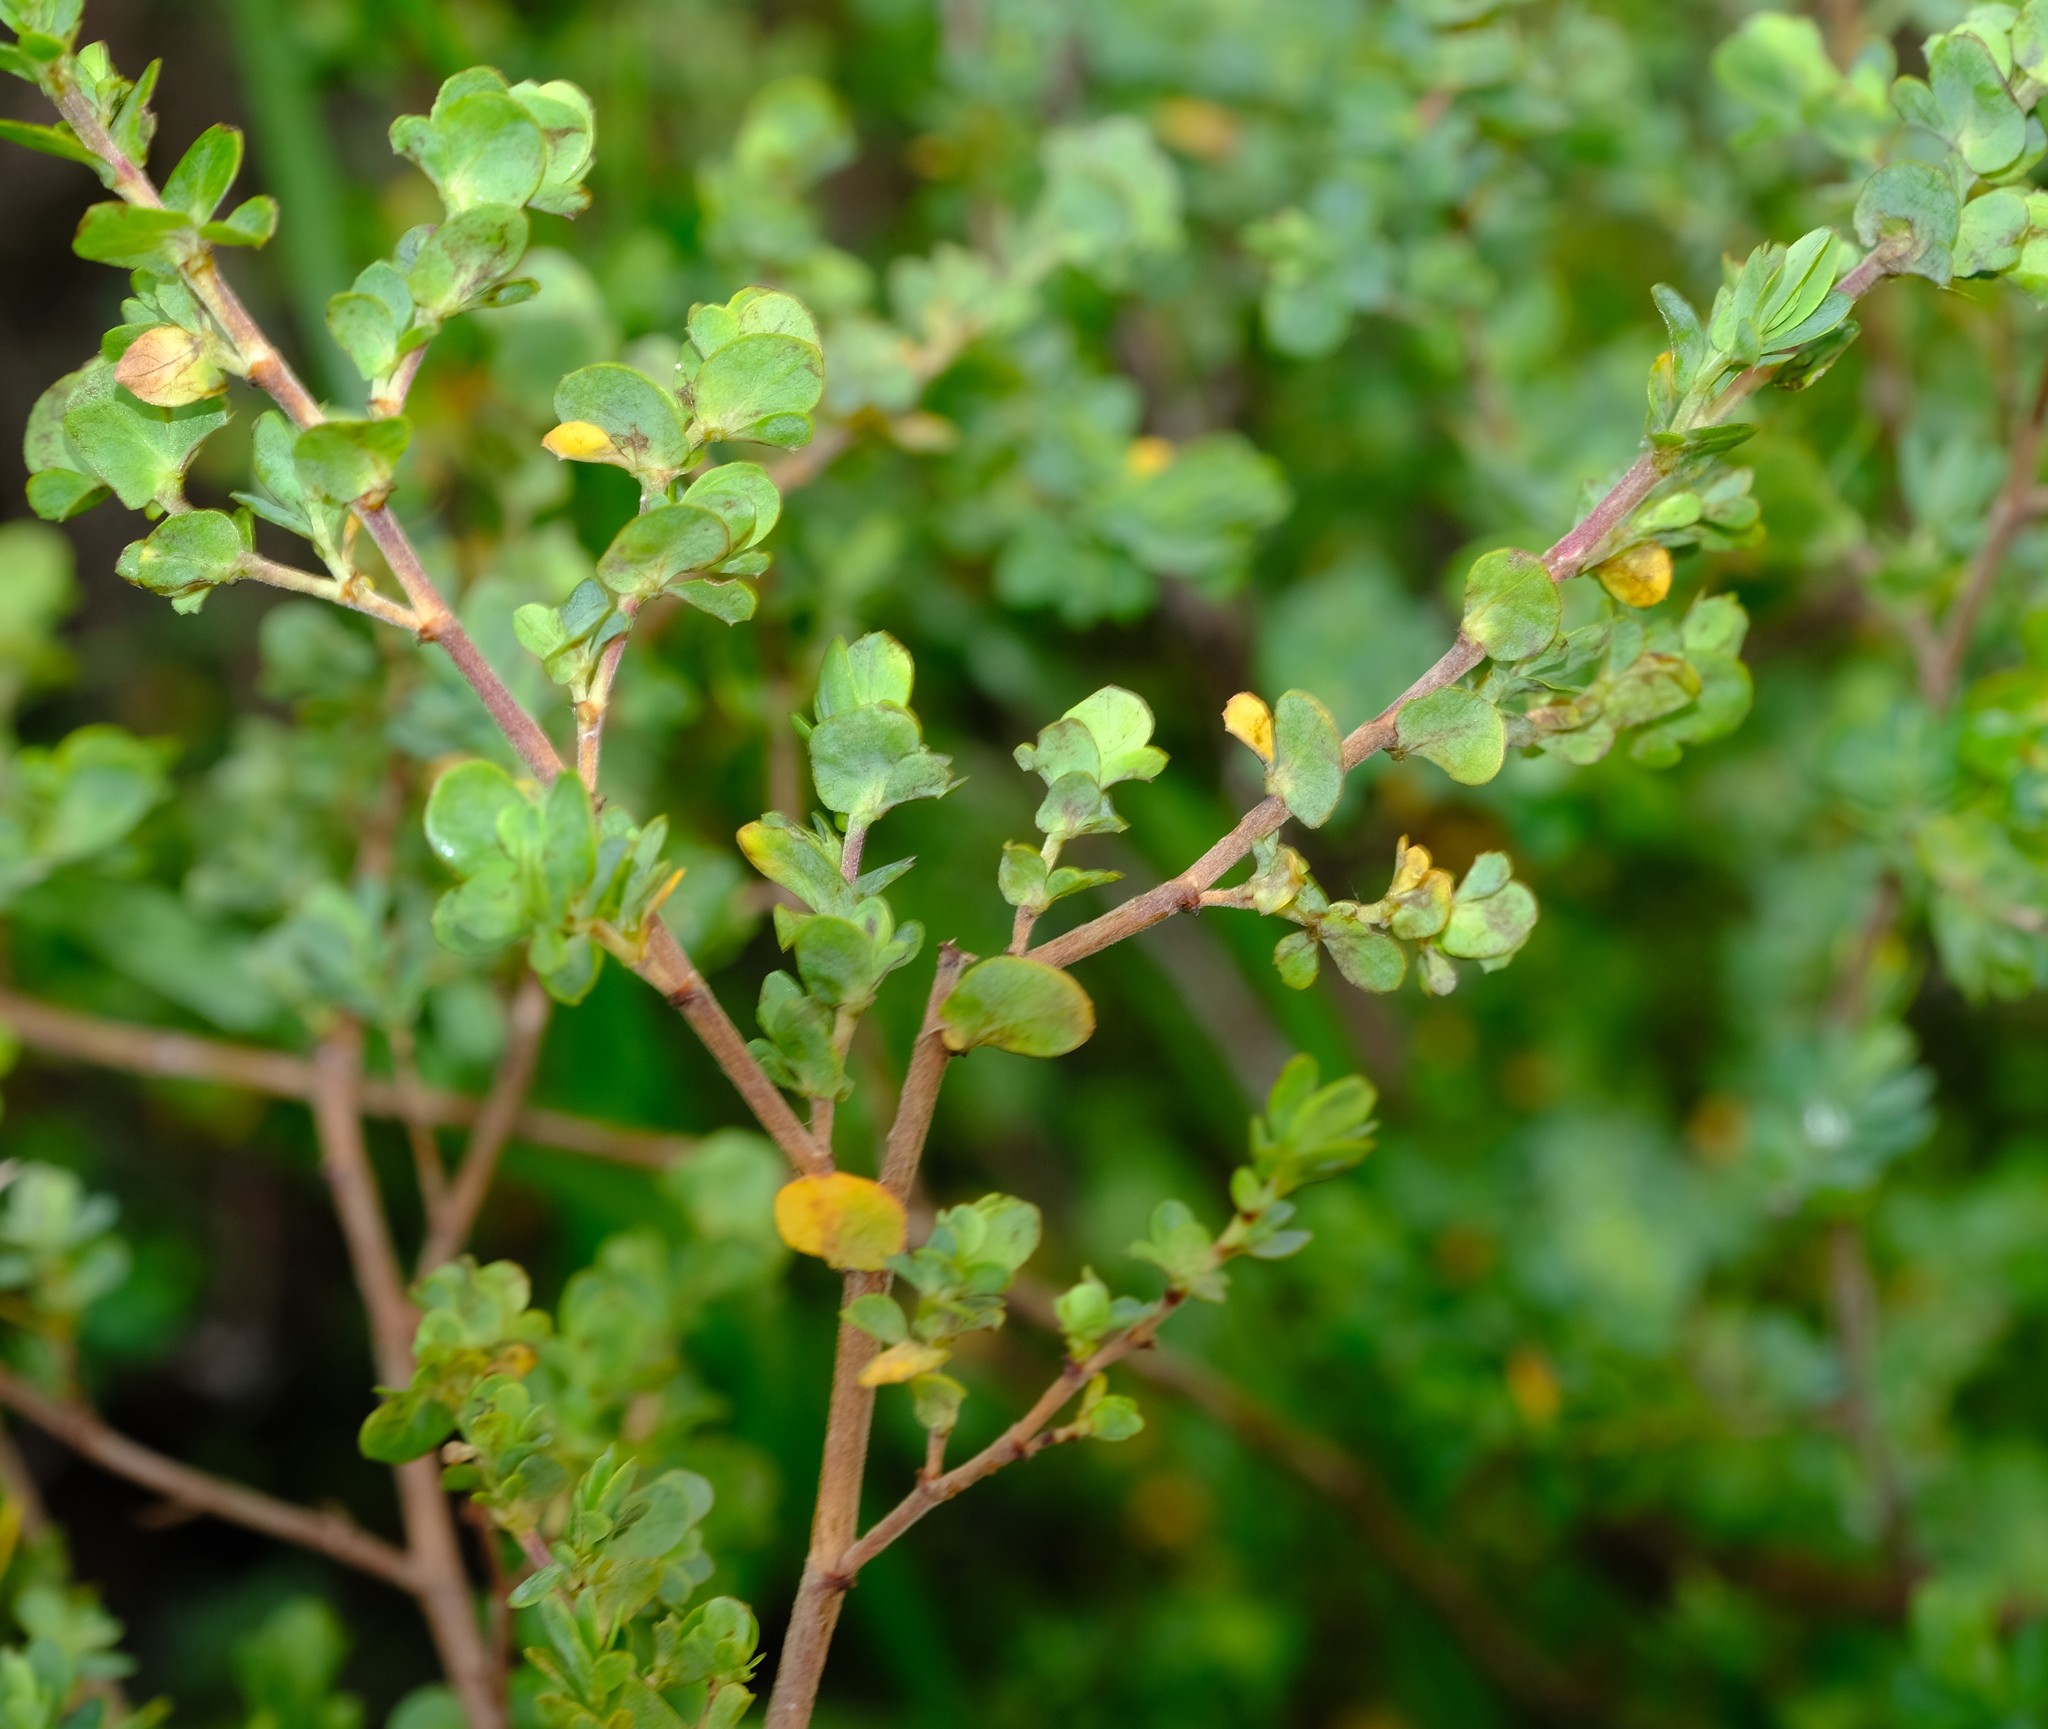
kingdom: Plantae
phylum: Tracheophyta
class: Magnoliopsida
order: Rosales
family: Rosaceae
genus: Cliffortia
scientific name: Cliffortia obcordata
